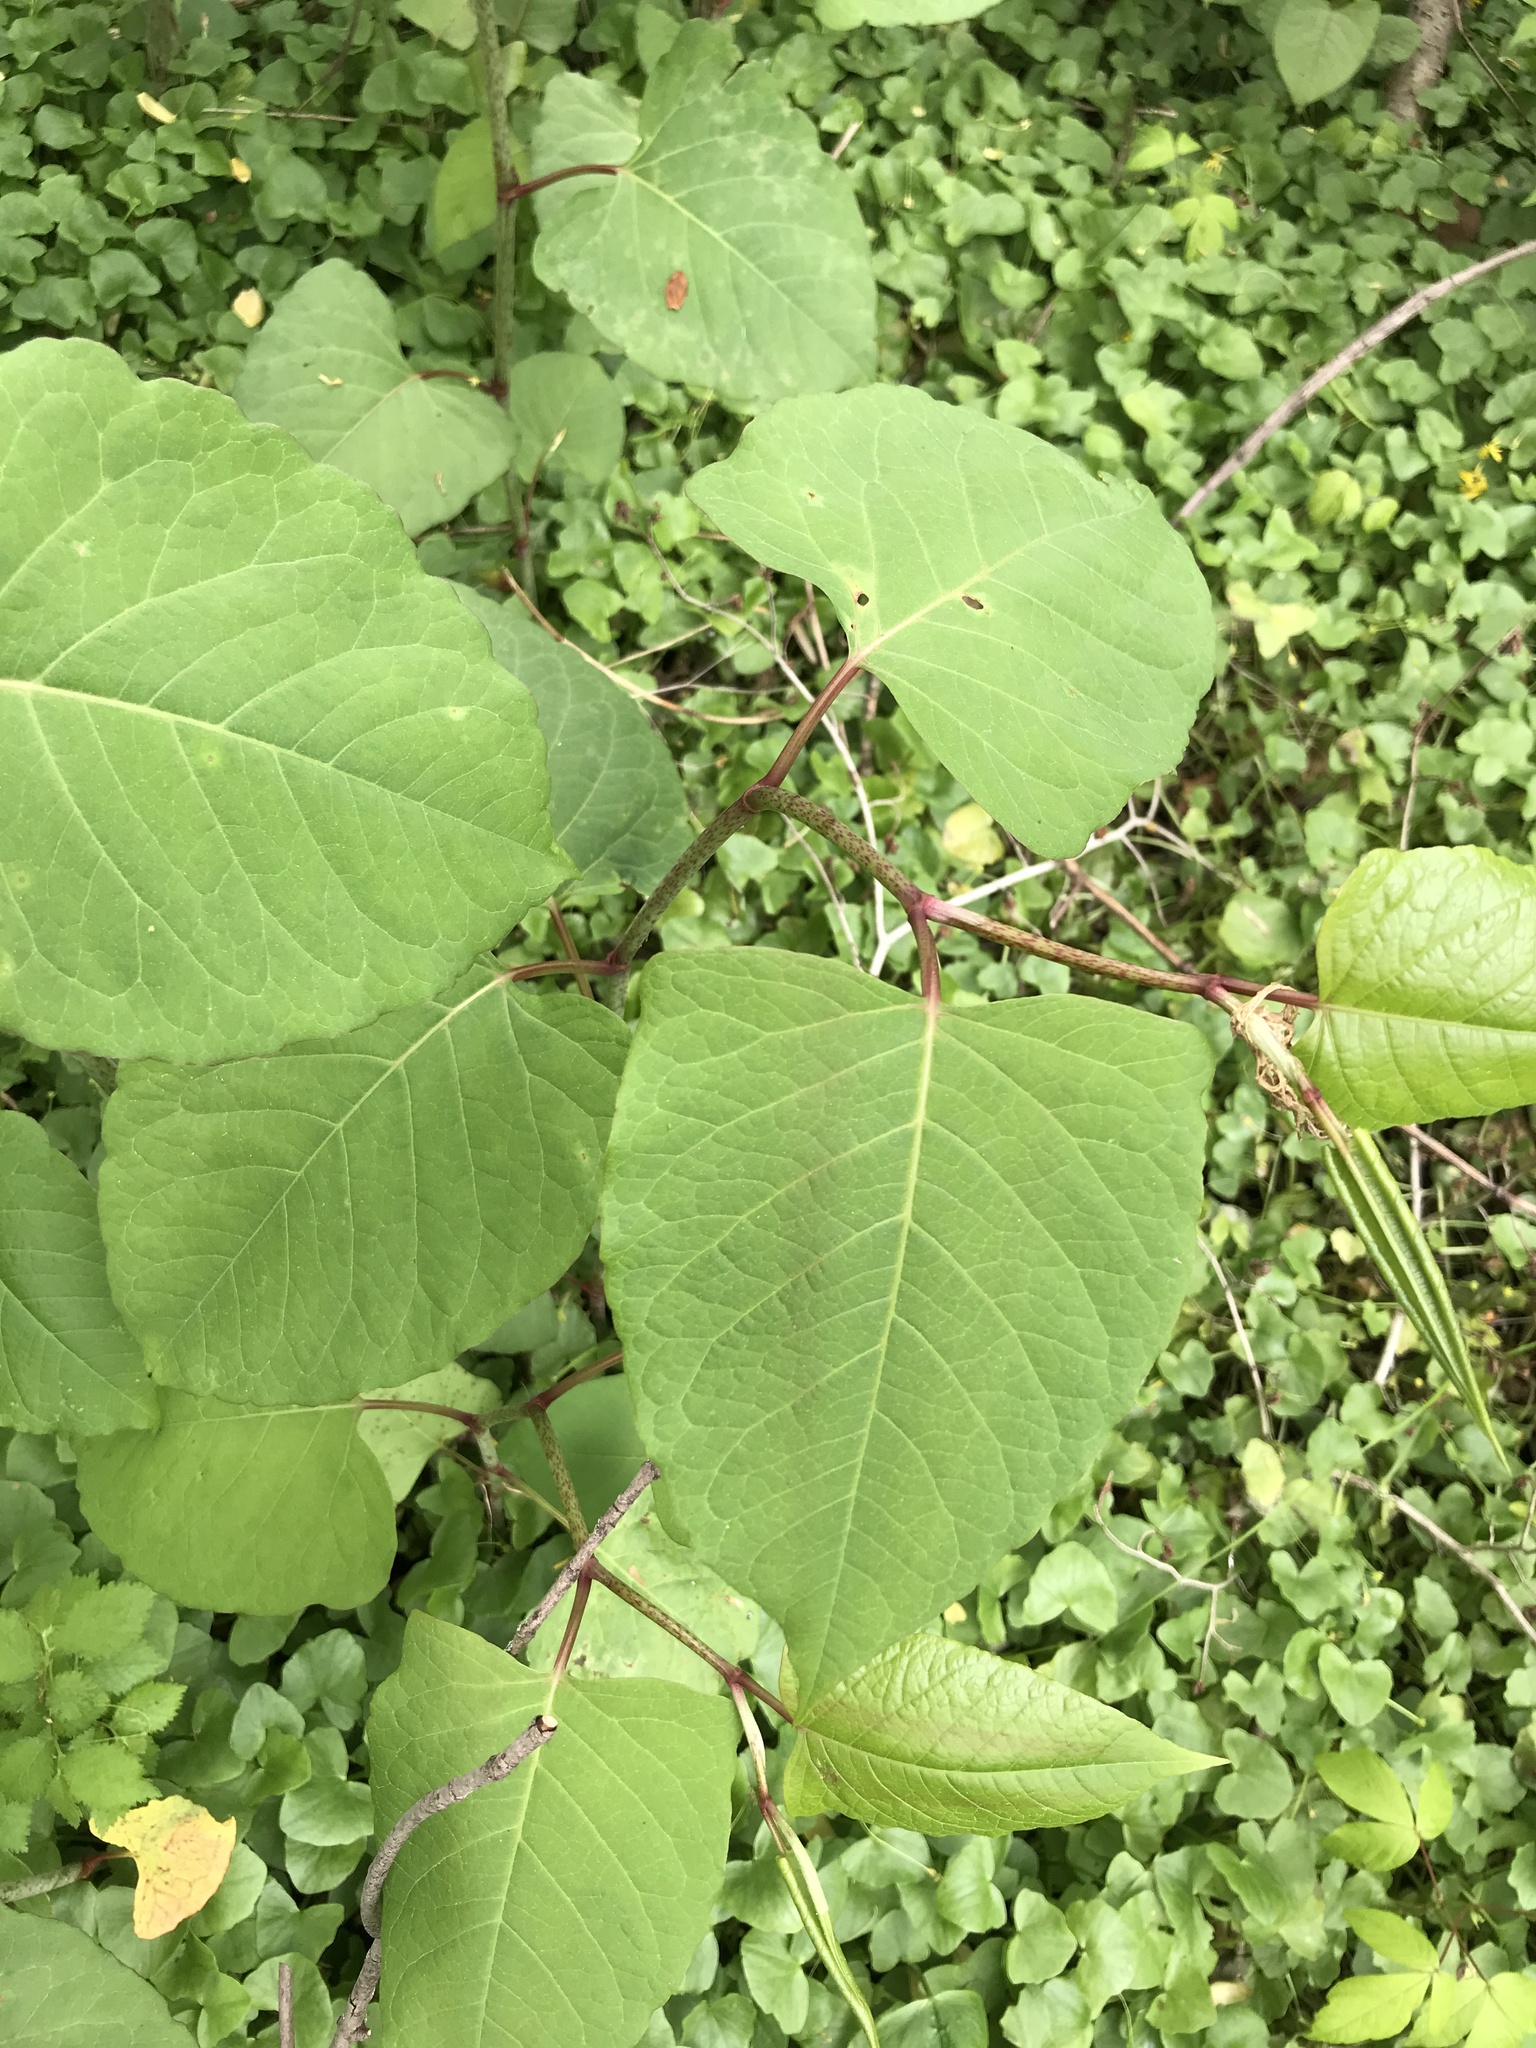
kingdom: Plantae
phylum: Tracheophyta
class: Magnoliopsida
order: Caryophyllales
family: Polygonaceae
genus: Reynoutria
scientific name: Reynoutria japonica
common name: Japanese knotweed
